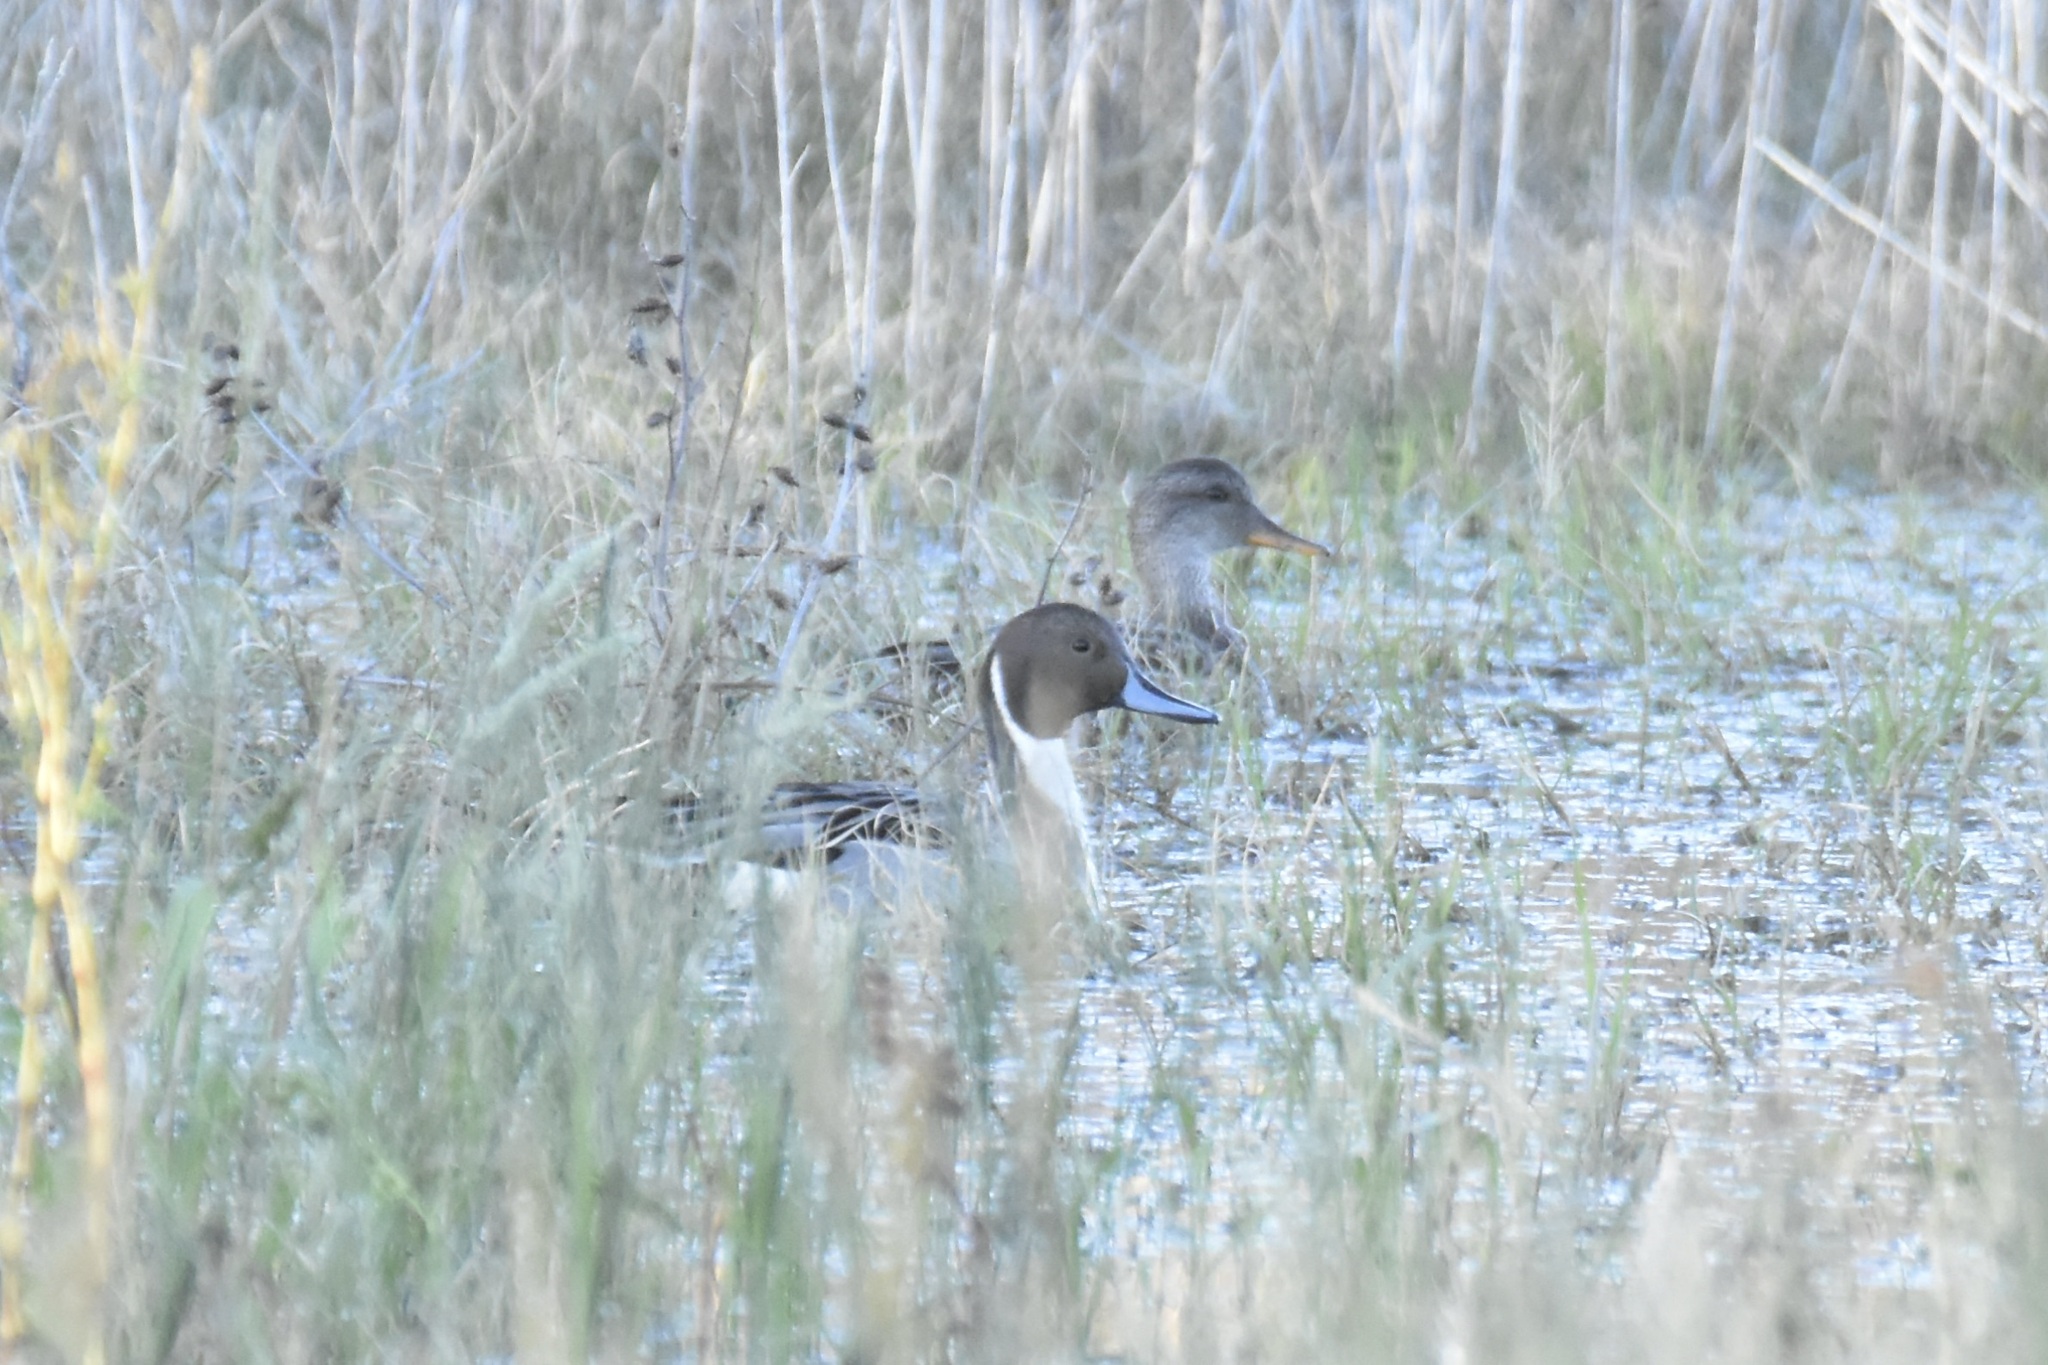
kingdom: Animalia
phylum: Chordata
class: Aves
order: Anseriformes
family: Anatidae
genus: Anas
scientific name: Anas acuta
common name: Northern pintail
